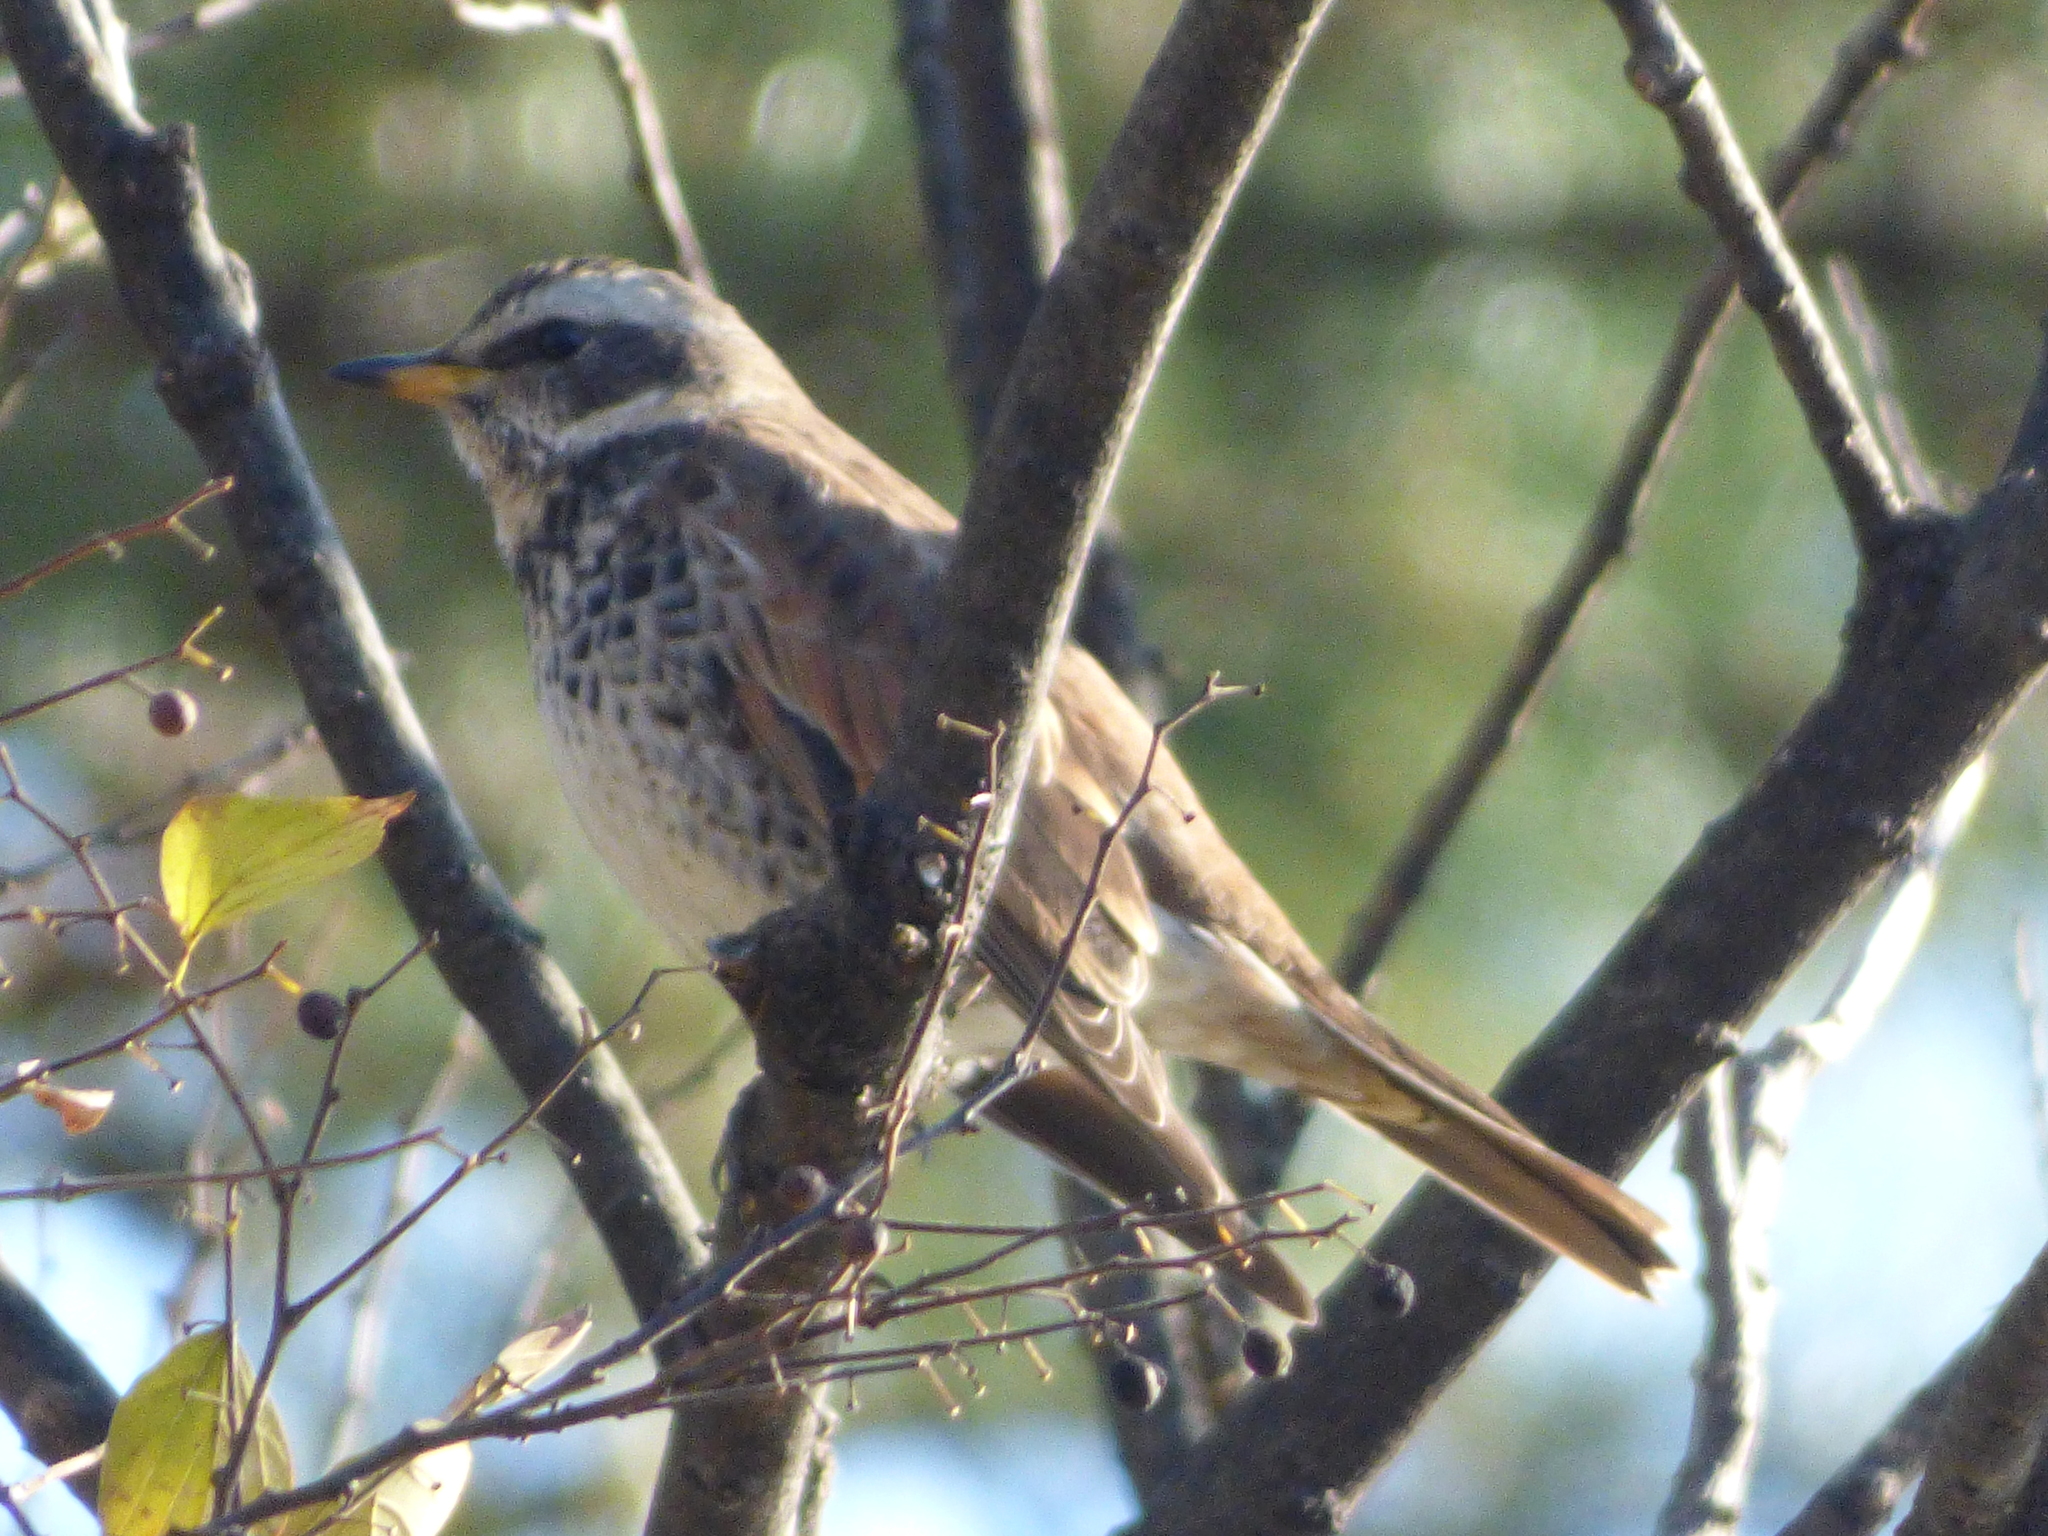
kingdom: Animalia
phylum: Chordata
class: Aves
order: Passeriformes
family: Turdidae
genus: Turdus
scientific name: Turdus eunomus
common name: Dusky thrush
